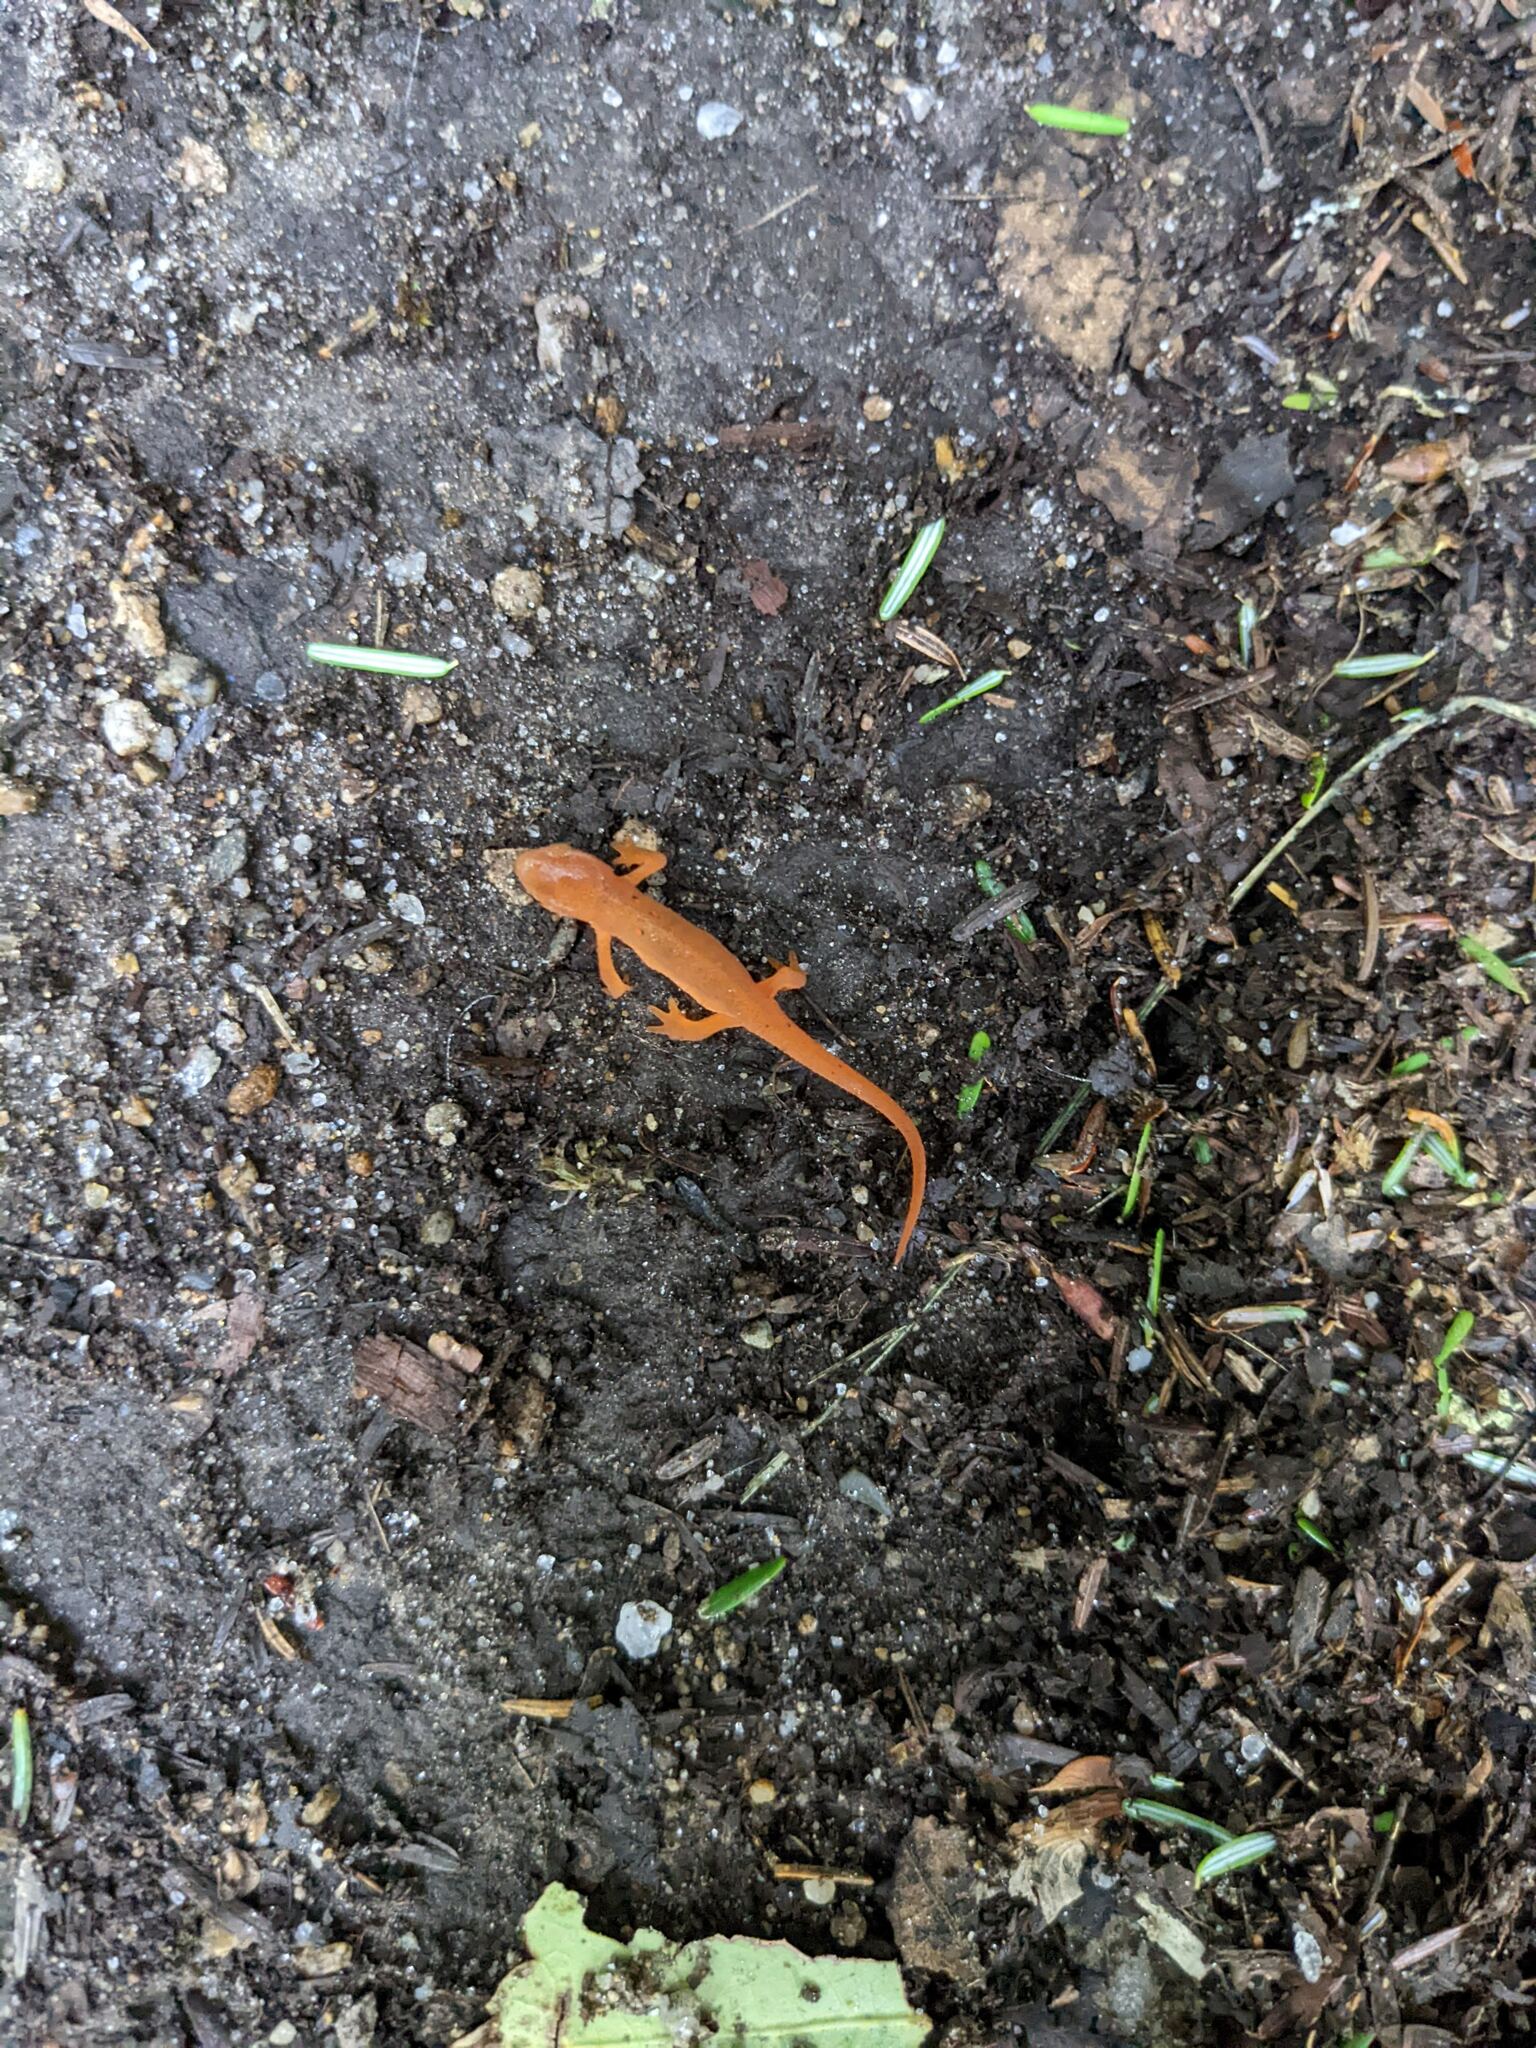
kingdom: Animalia
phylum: Chordata
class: Amphibia
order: Caudata
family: Salamandridae
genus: Notophthalmus
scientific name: Notophthalmus viridescens
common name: Eastern newt
